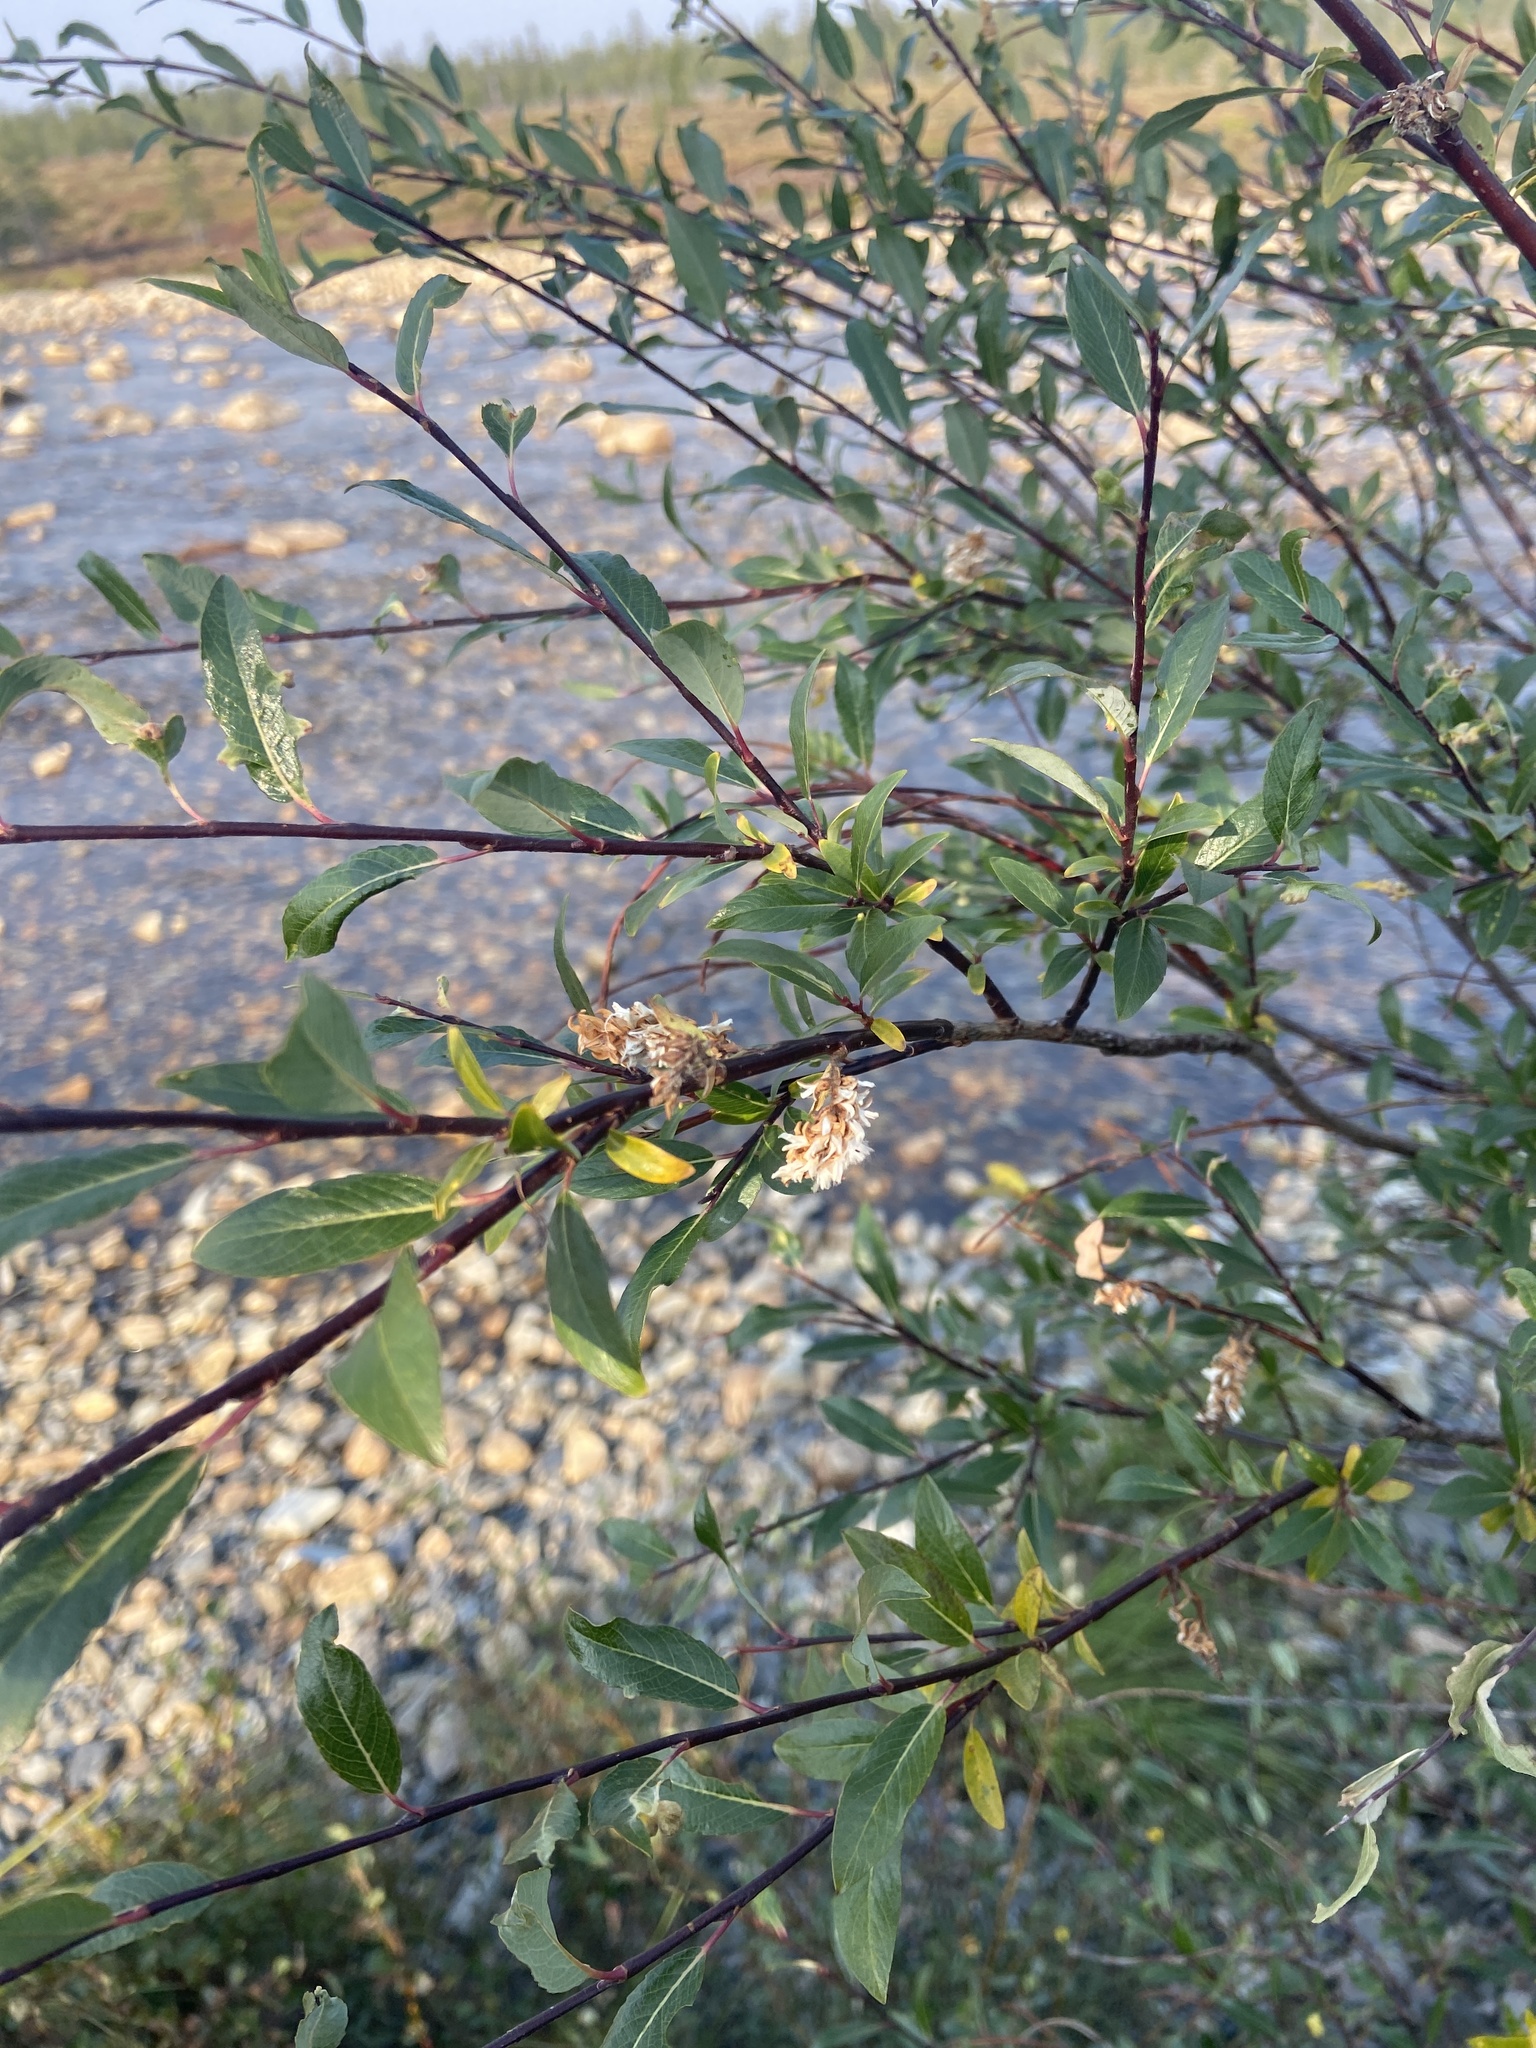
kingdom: Plantae
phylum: Tracheophyta
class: Magnoliopsida
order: Malpighiales
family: Salicaceae
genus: Salix
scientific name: Salix boganidensis
